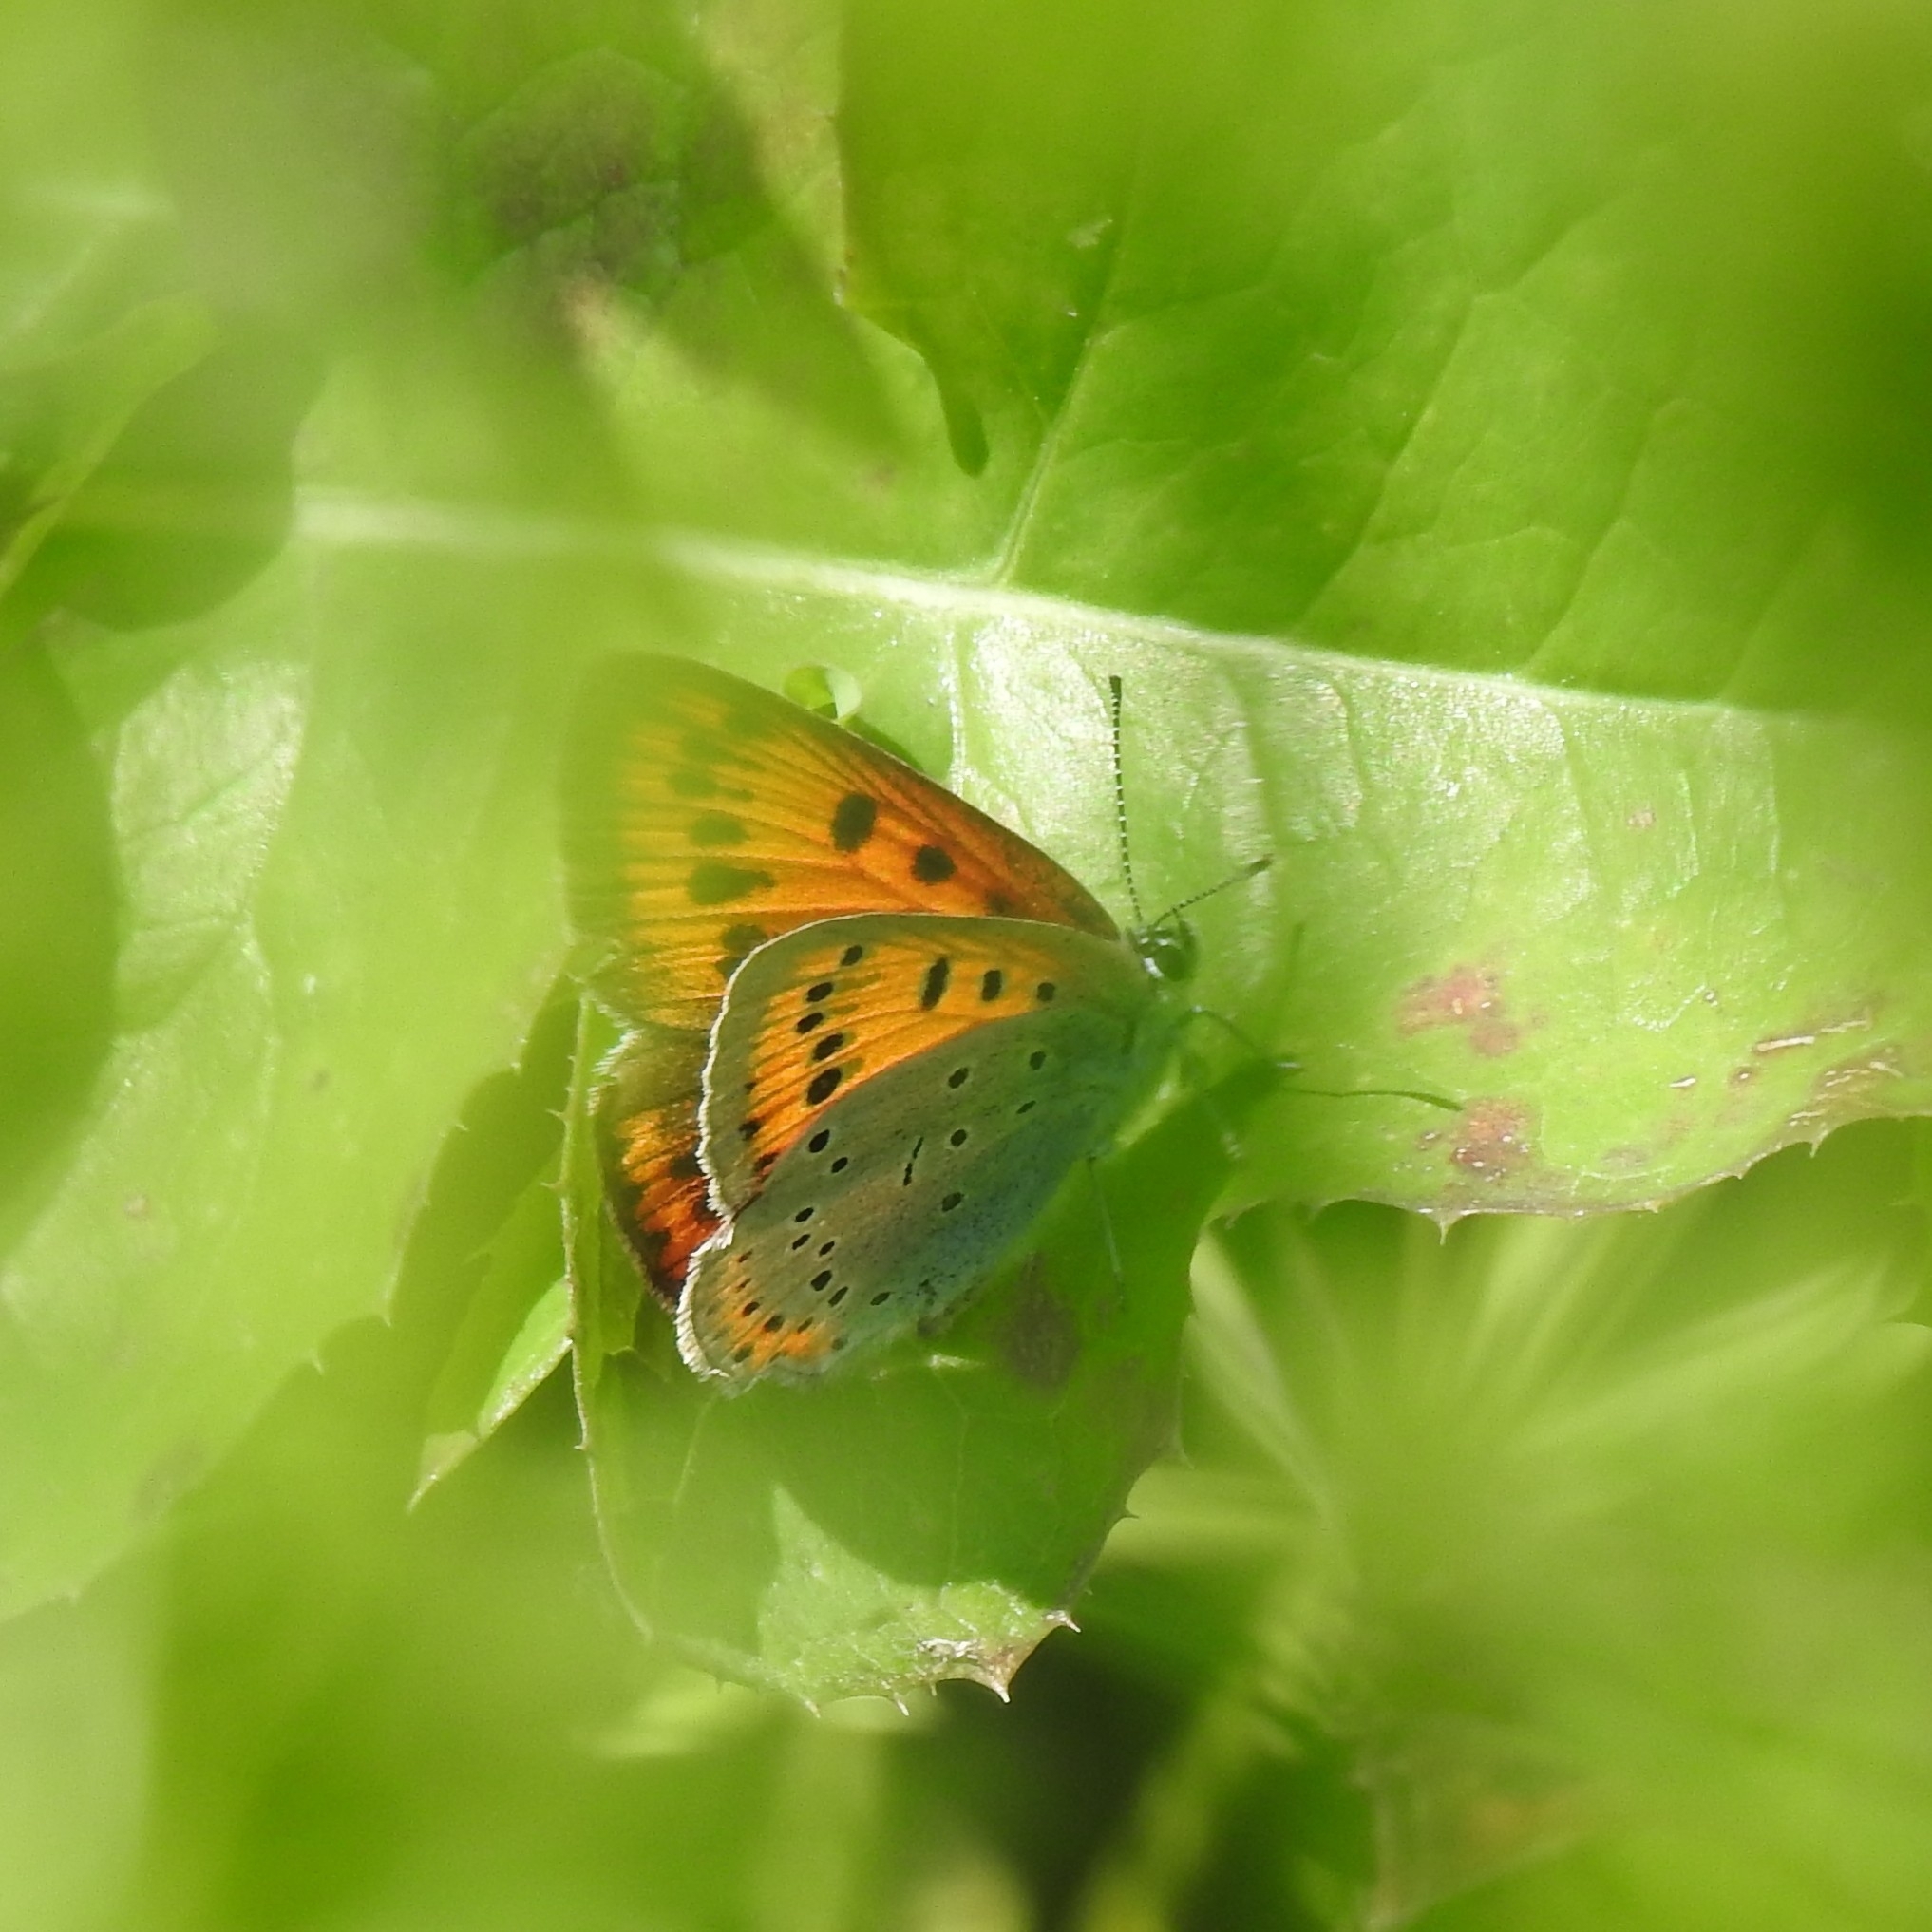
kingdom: Animalia
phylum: Arthropoda
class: Insecta
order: Lepidoptera
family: Lycaenidae
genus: Lycaena
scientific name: Lycaena dispar
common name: Large copper
